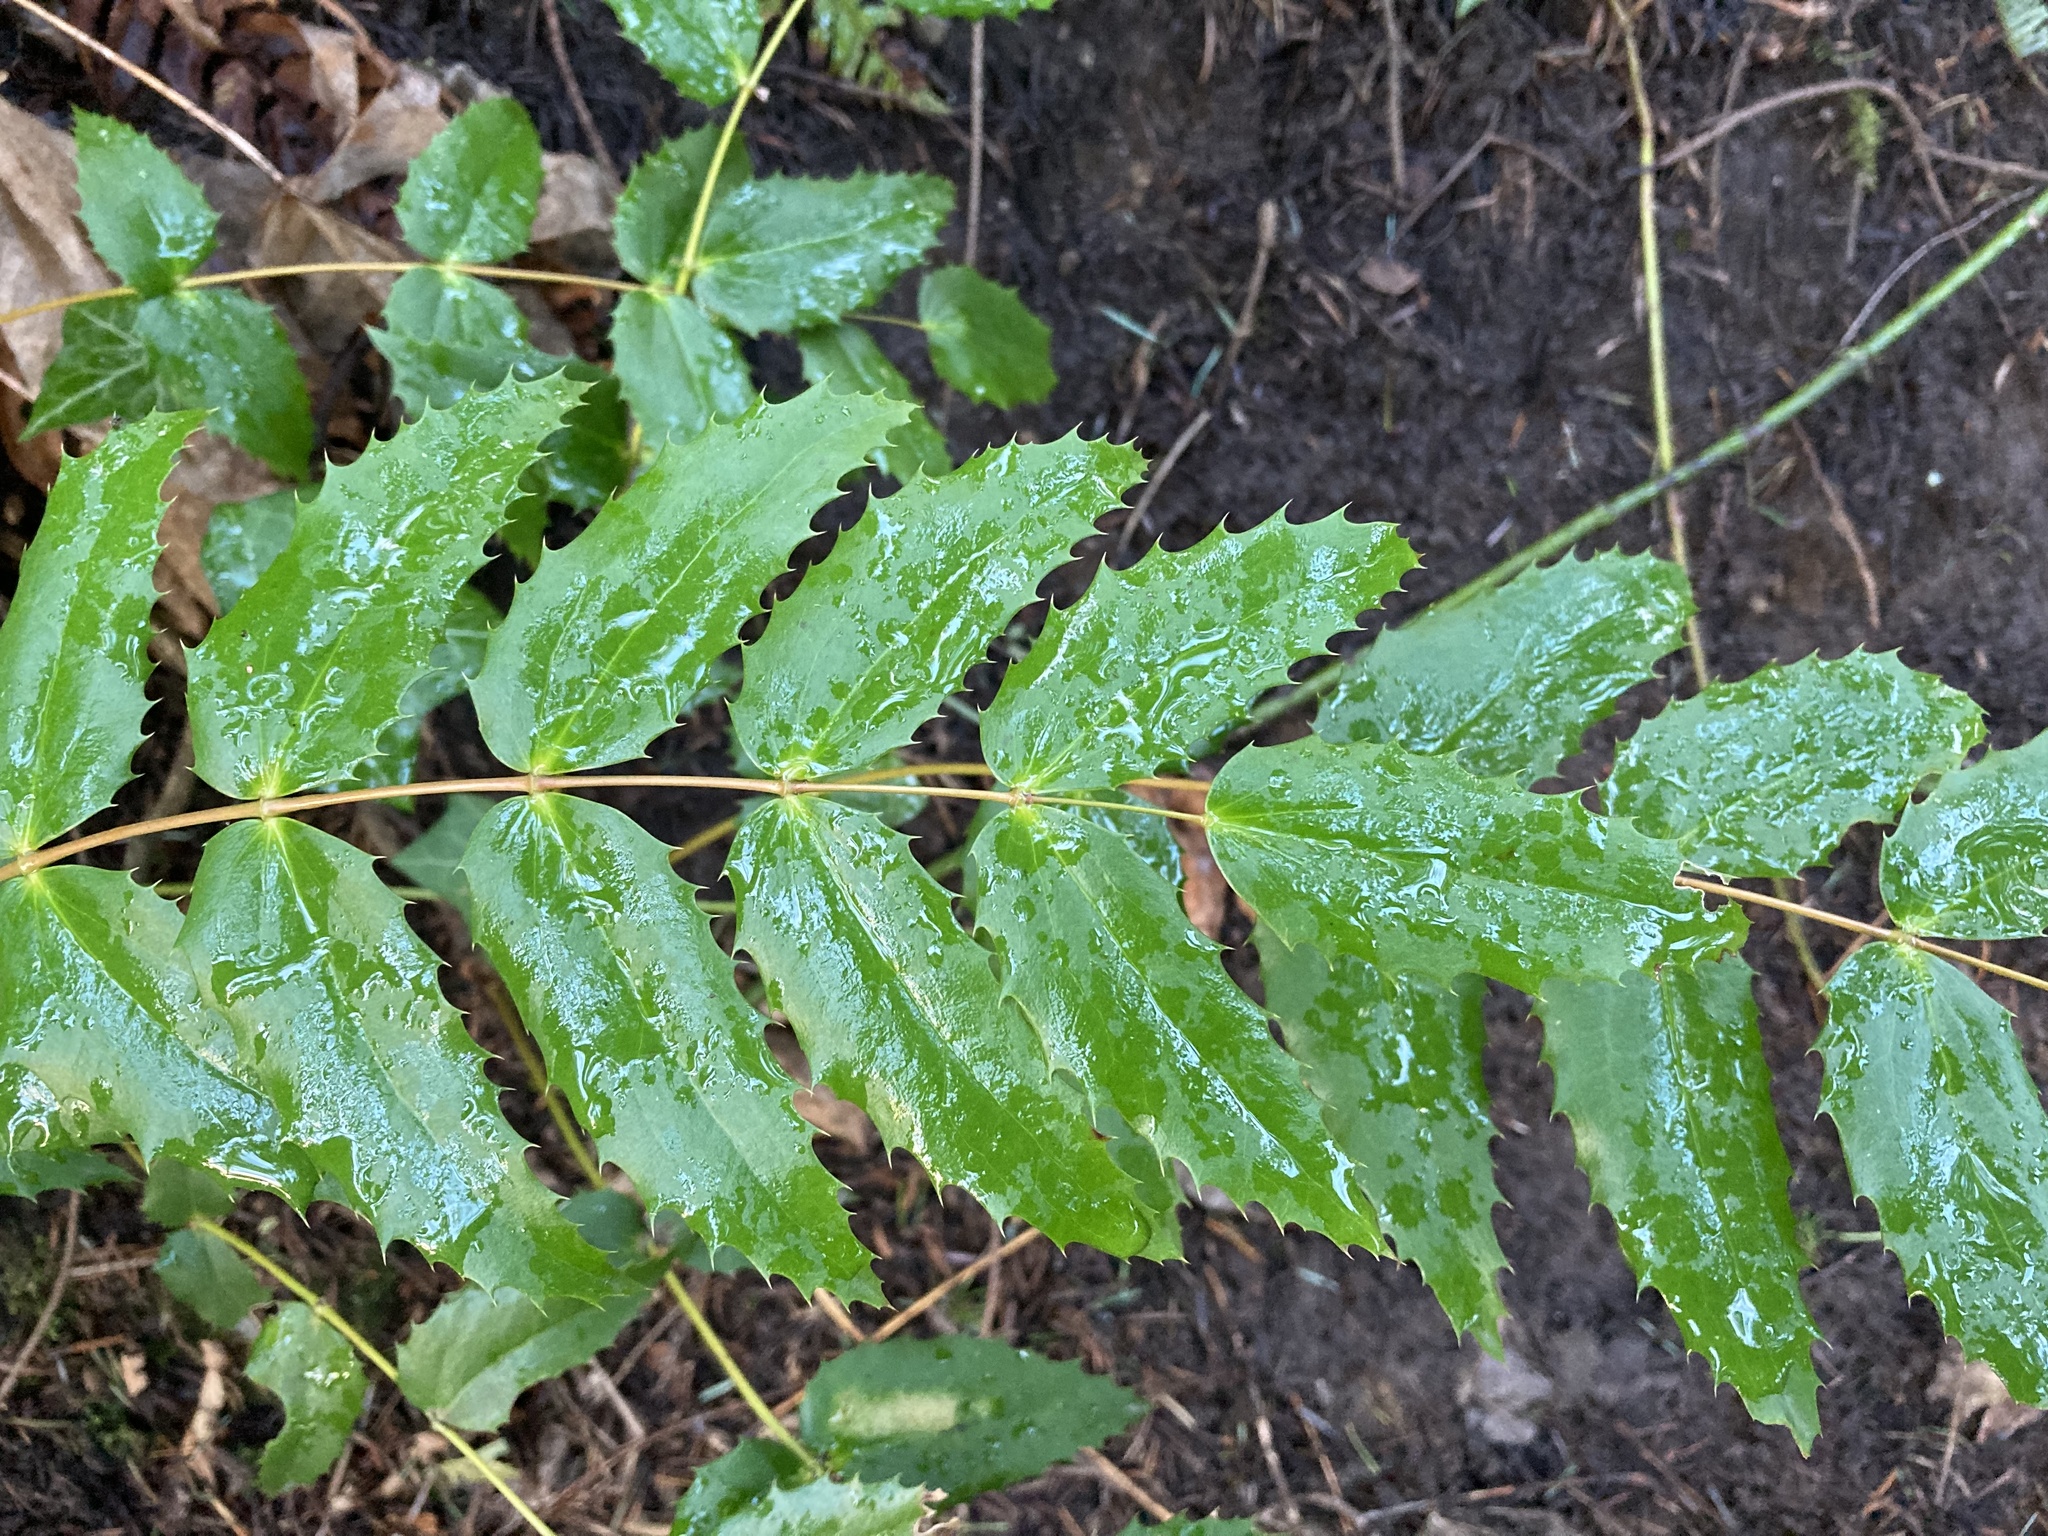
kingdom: Plantae
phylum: Tracheophyta
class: Magnoliopsida
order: Ranunculales
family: Berberidaceae
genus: Mahonia
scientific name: Mahonia nervosa
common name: Cascade oregon-grape
